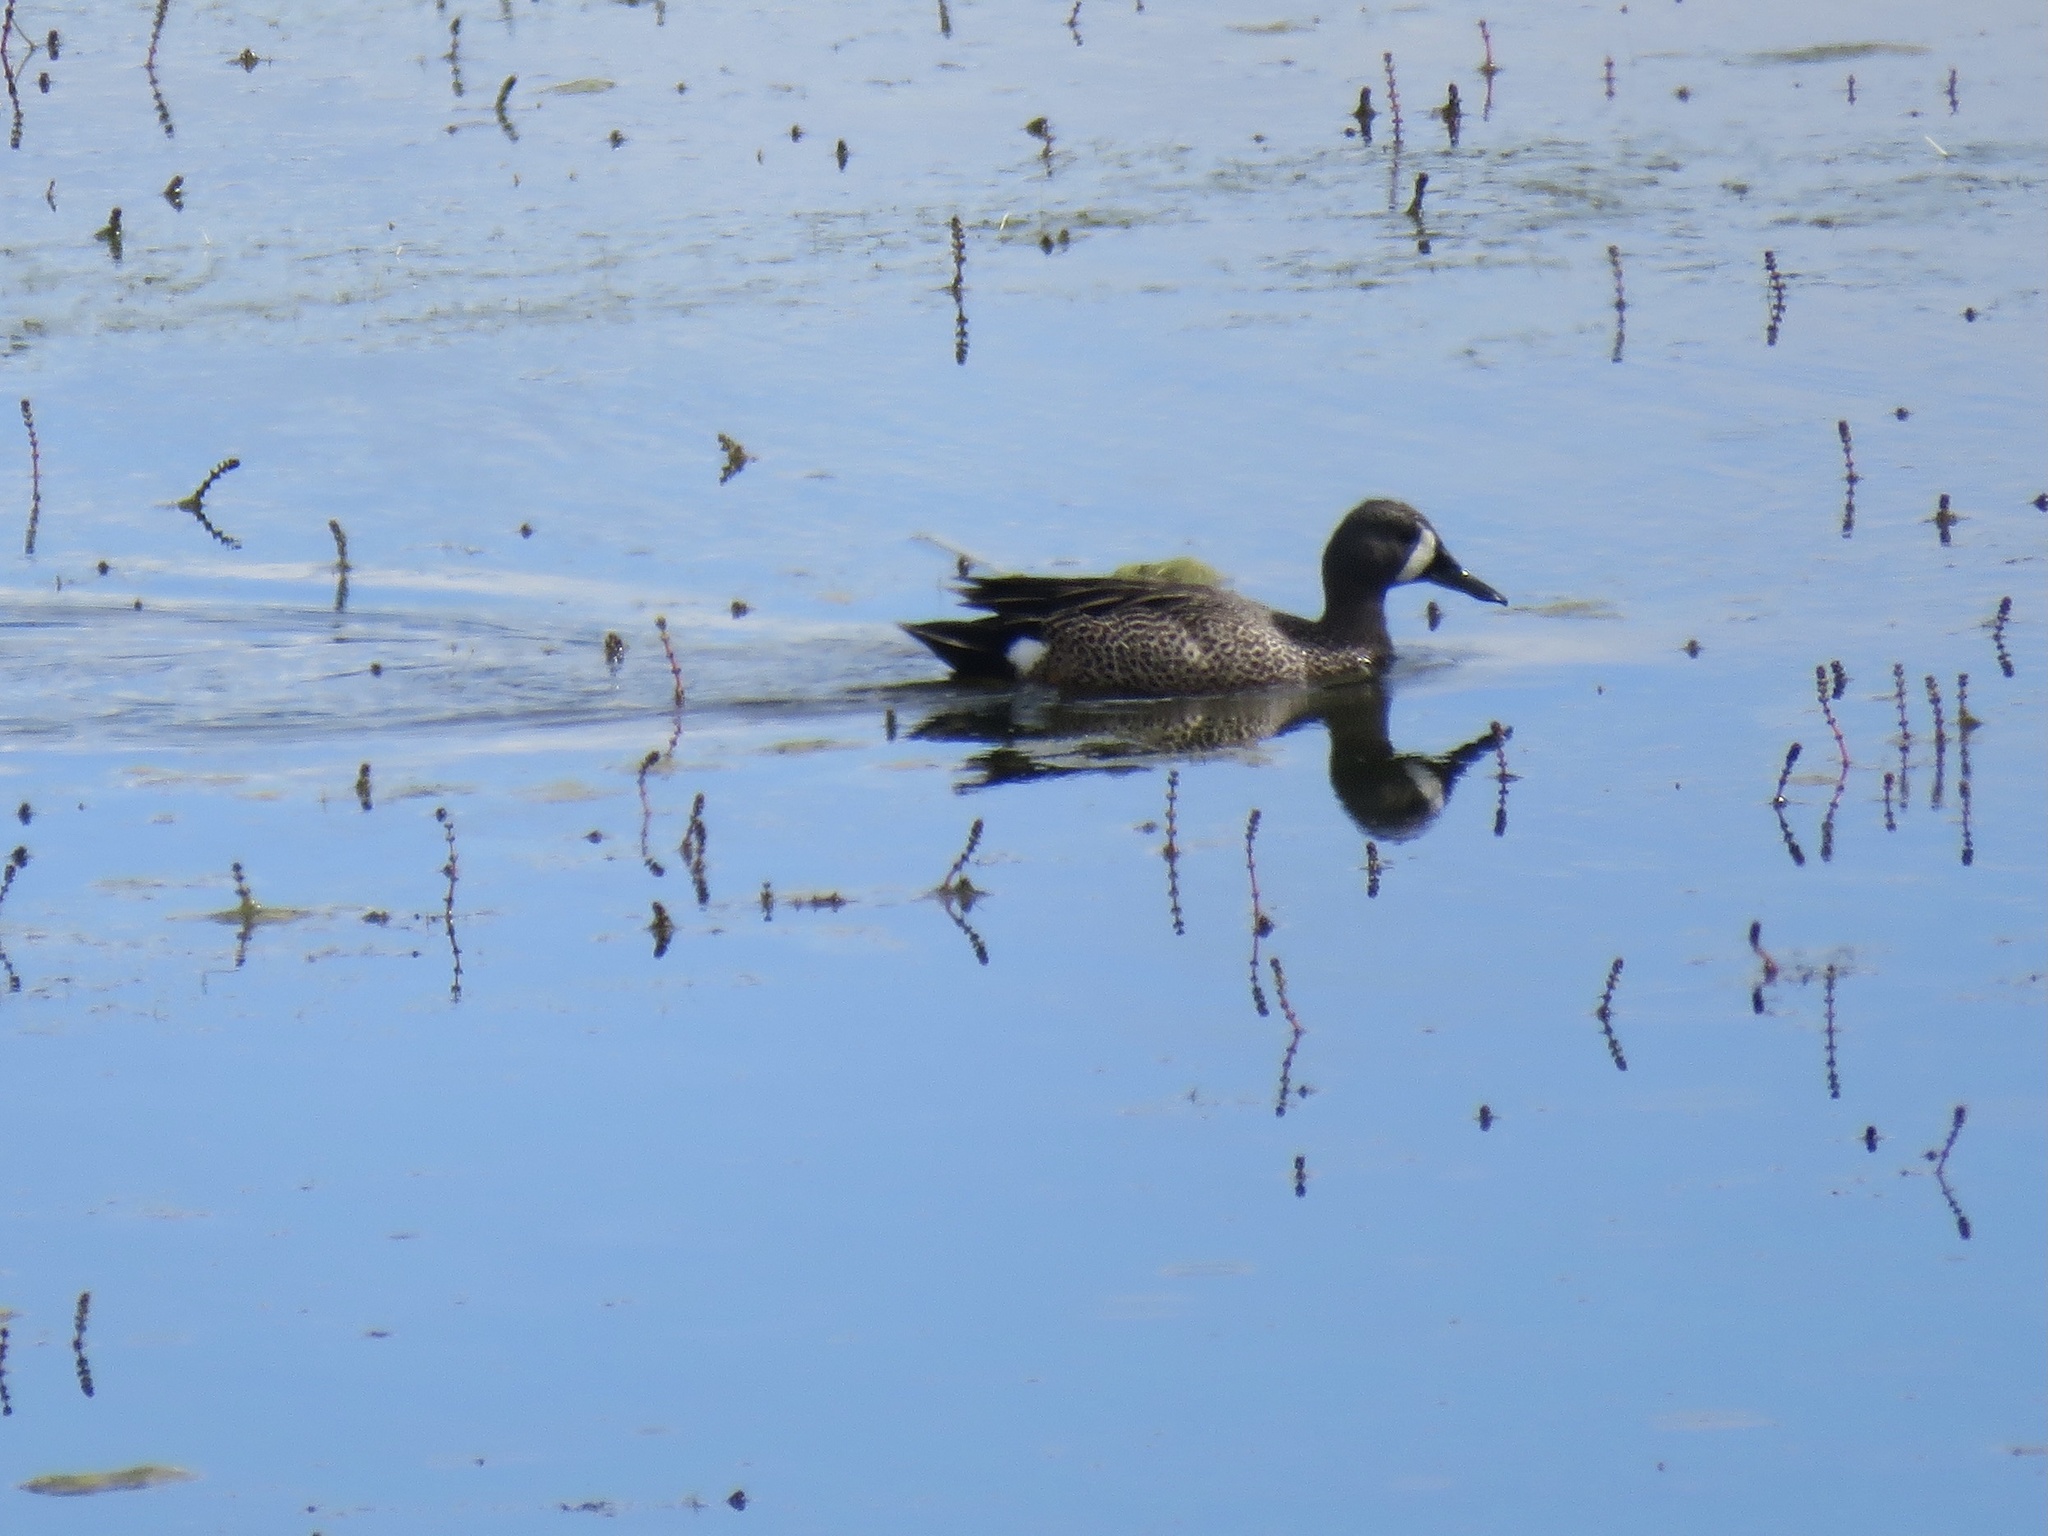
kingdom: Animalia
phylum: Chordata
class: Aves
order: Anseriformes
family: Anatidae
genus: Spatula
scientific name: Spatula discors
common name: Blue-winged teal
